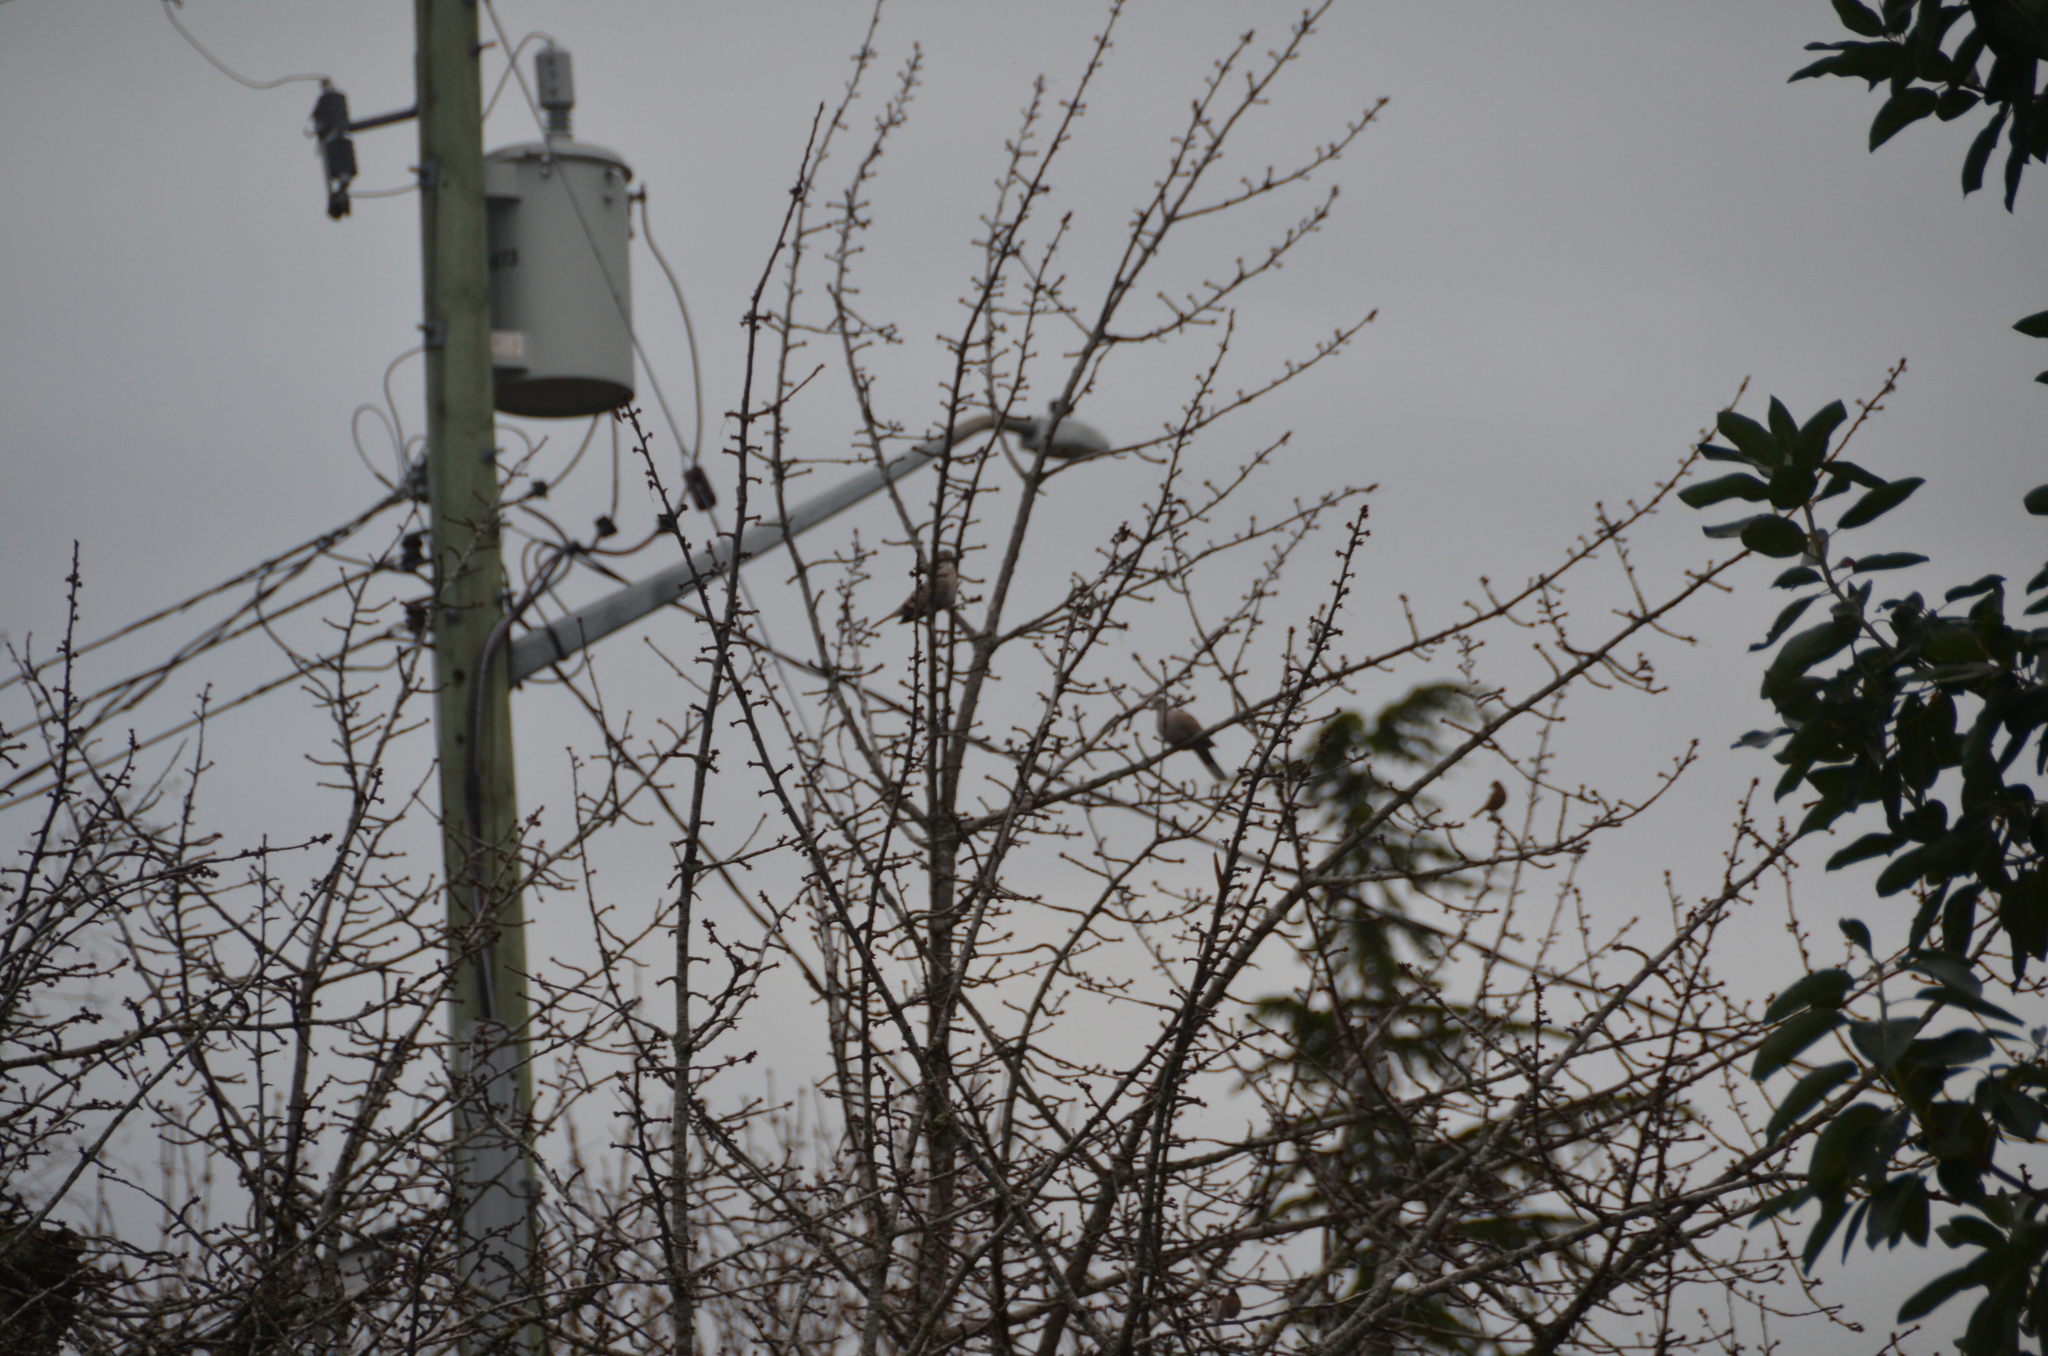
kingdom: Animalia
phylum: Chordata
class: Aves
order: Columbiformes
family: Columbidae
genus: Streptopelia
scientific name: Streptopelia decaocto
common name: Eurasian collared dove
